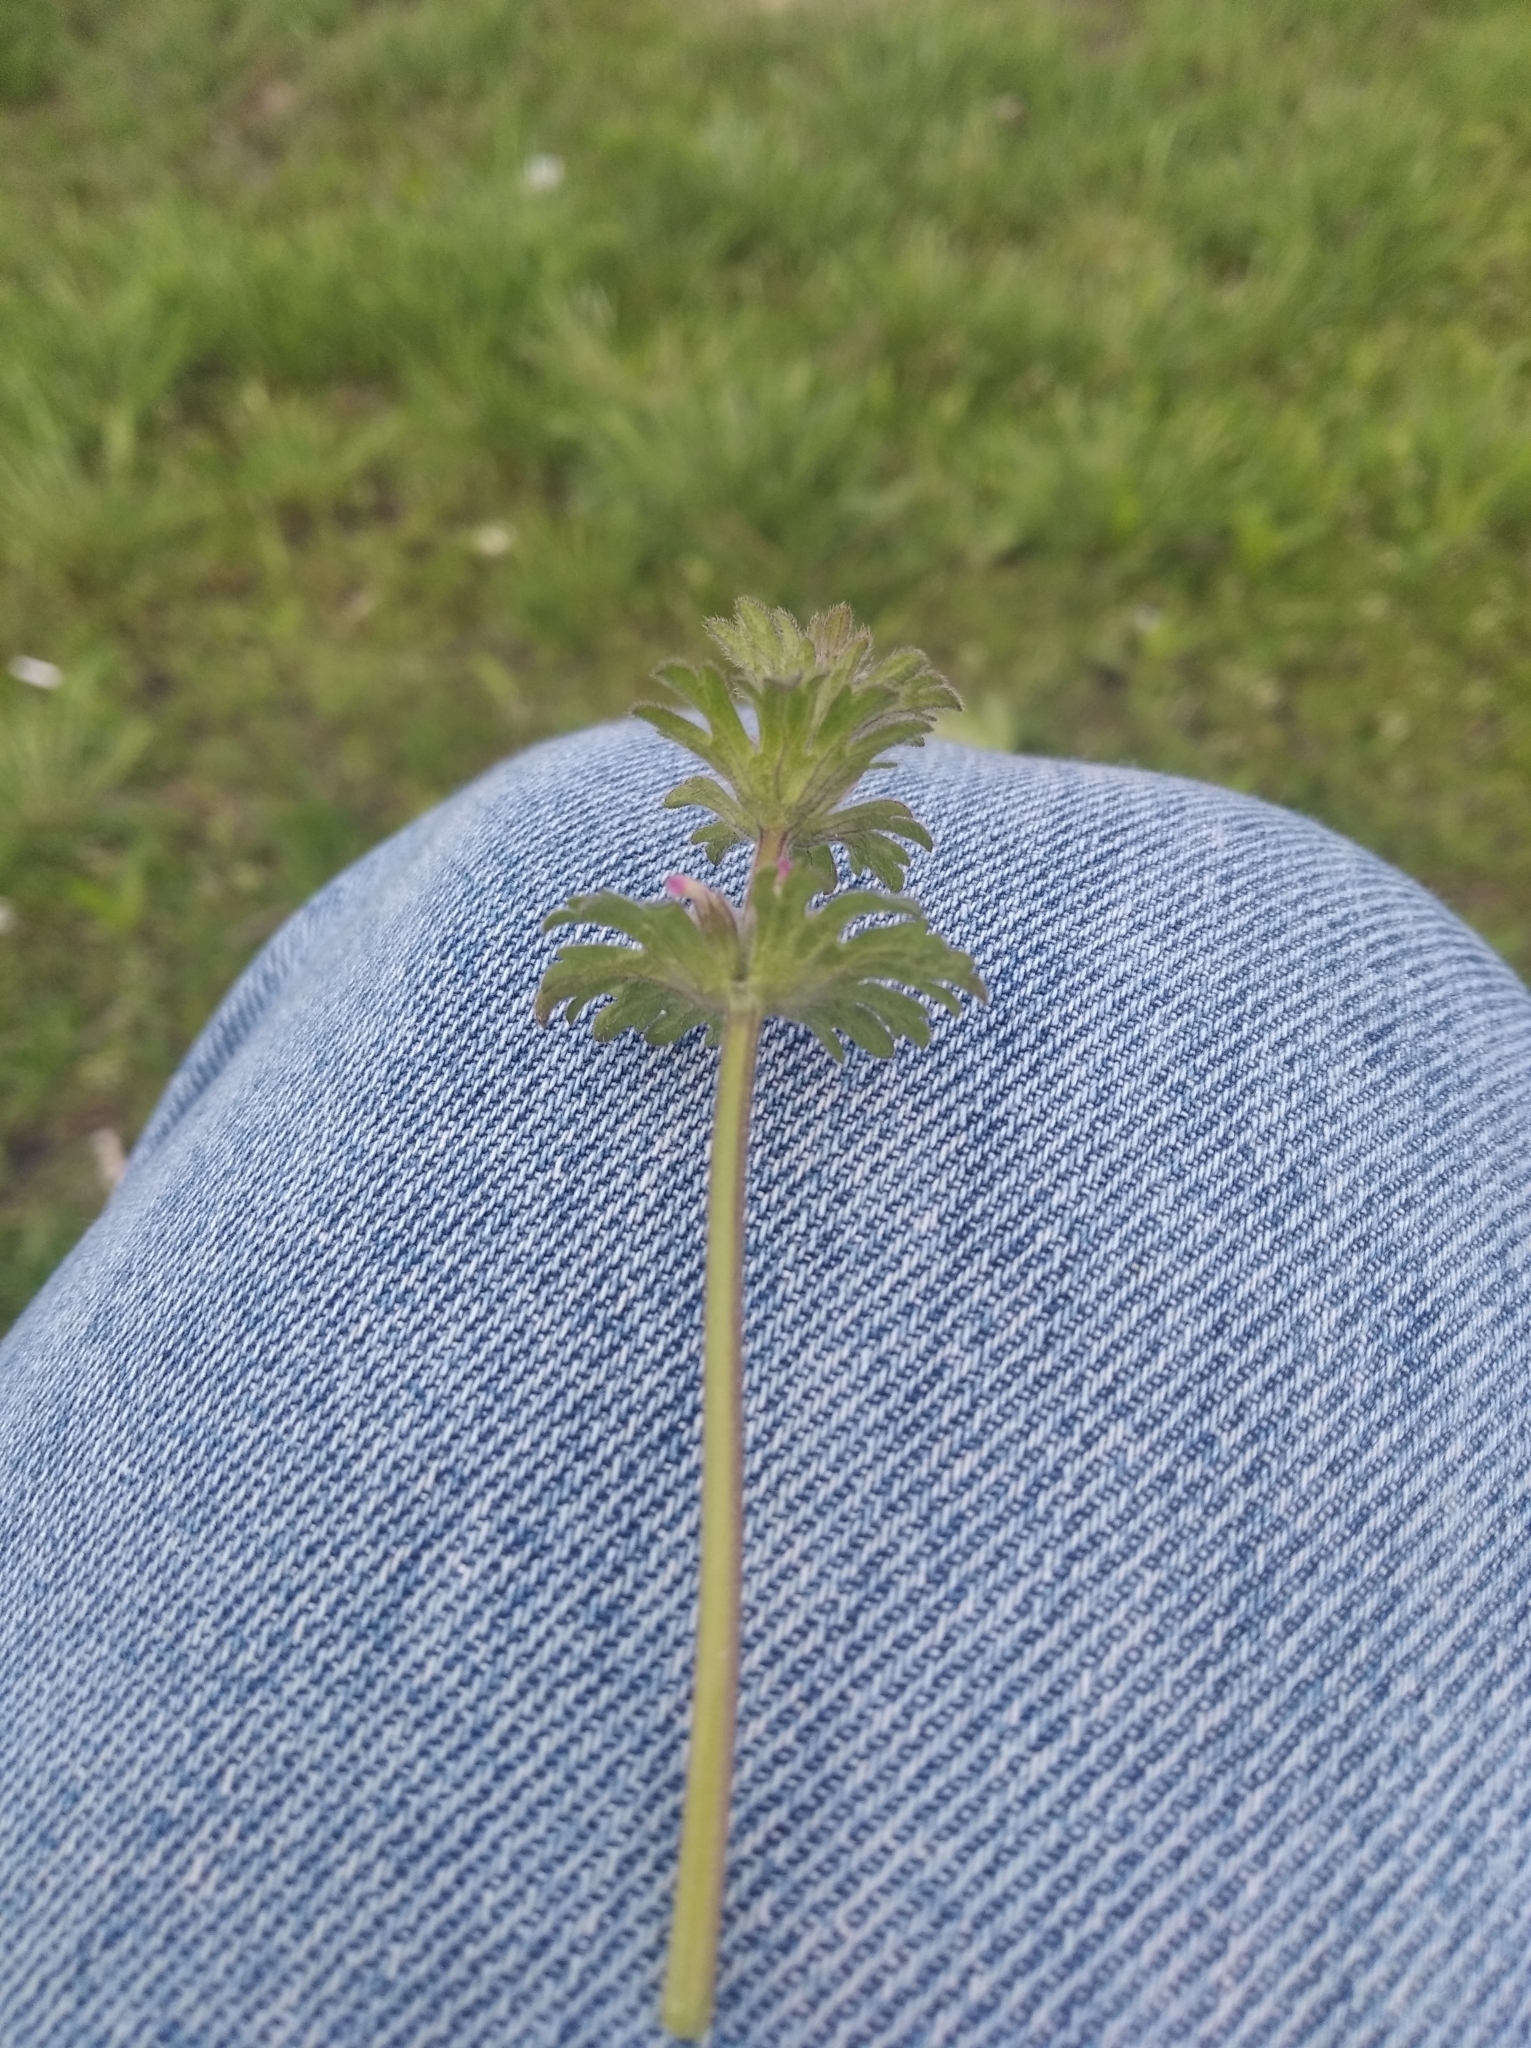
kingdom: Plantae
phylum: Tracheophyta
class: Magnoliopsida
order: Lamiales
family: Lamiaceae
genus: Lamium
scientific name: Lamium amplexicaule
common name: Henbit dead-nettle
